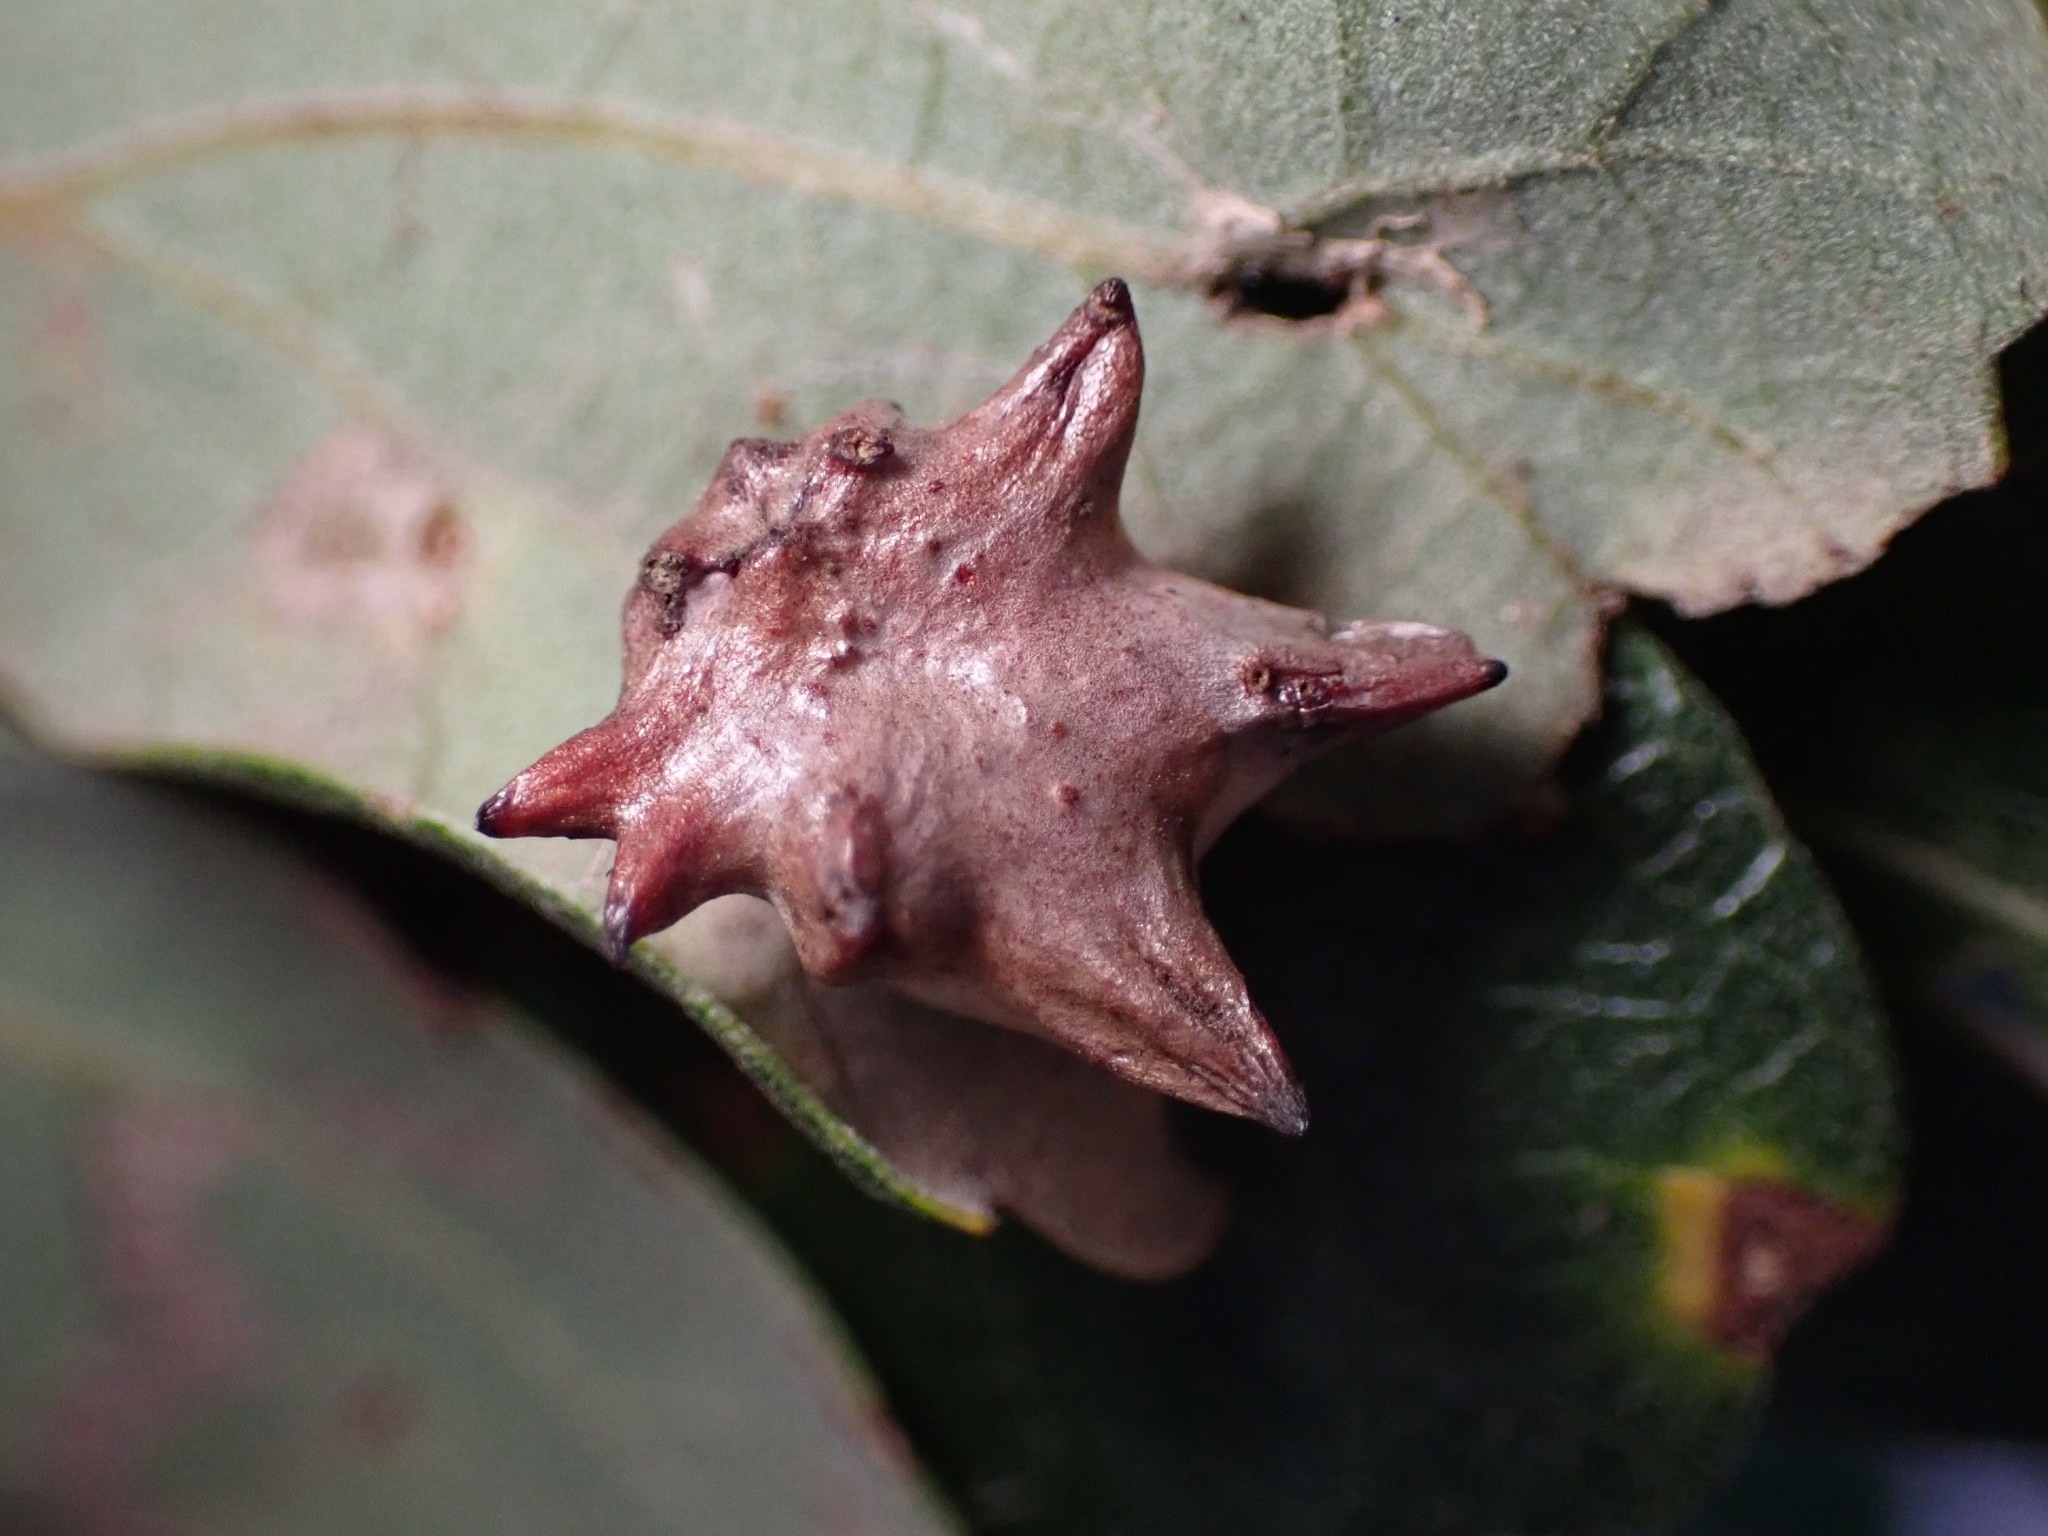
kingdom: Animalia
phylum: Arthropoda
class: Insecta
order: Hymenoptera
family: Cynipidae
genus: Cynips
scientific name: Cynips douglasi
